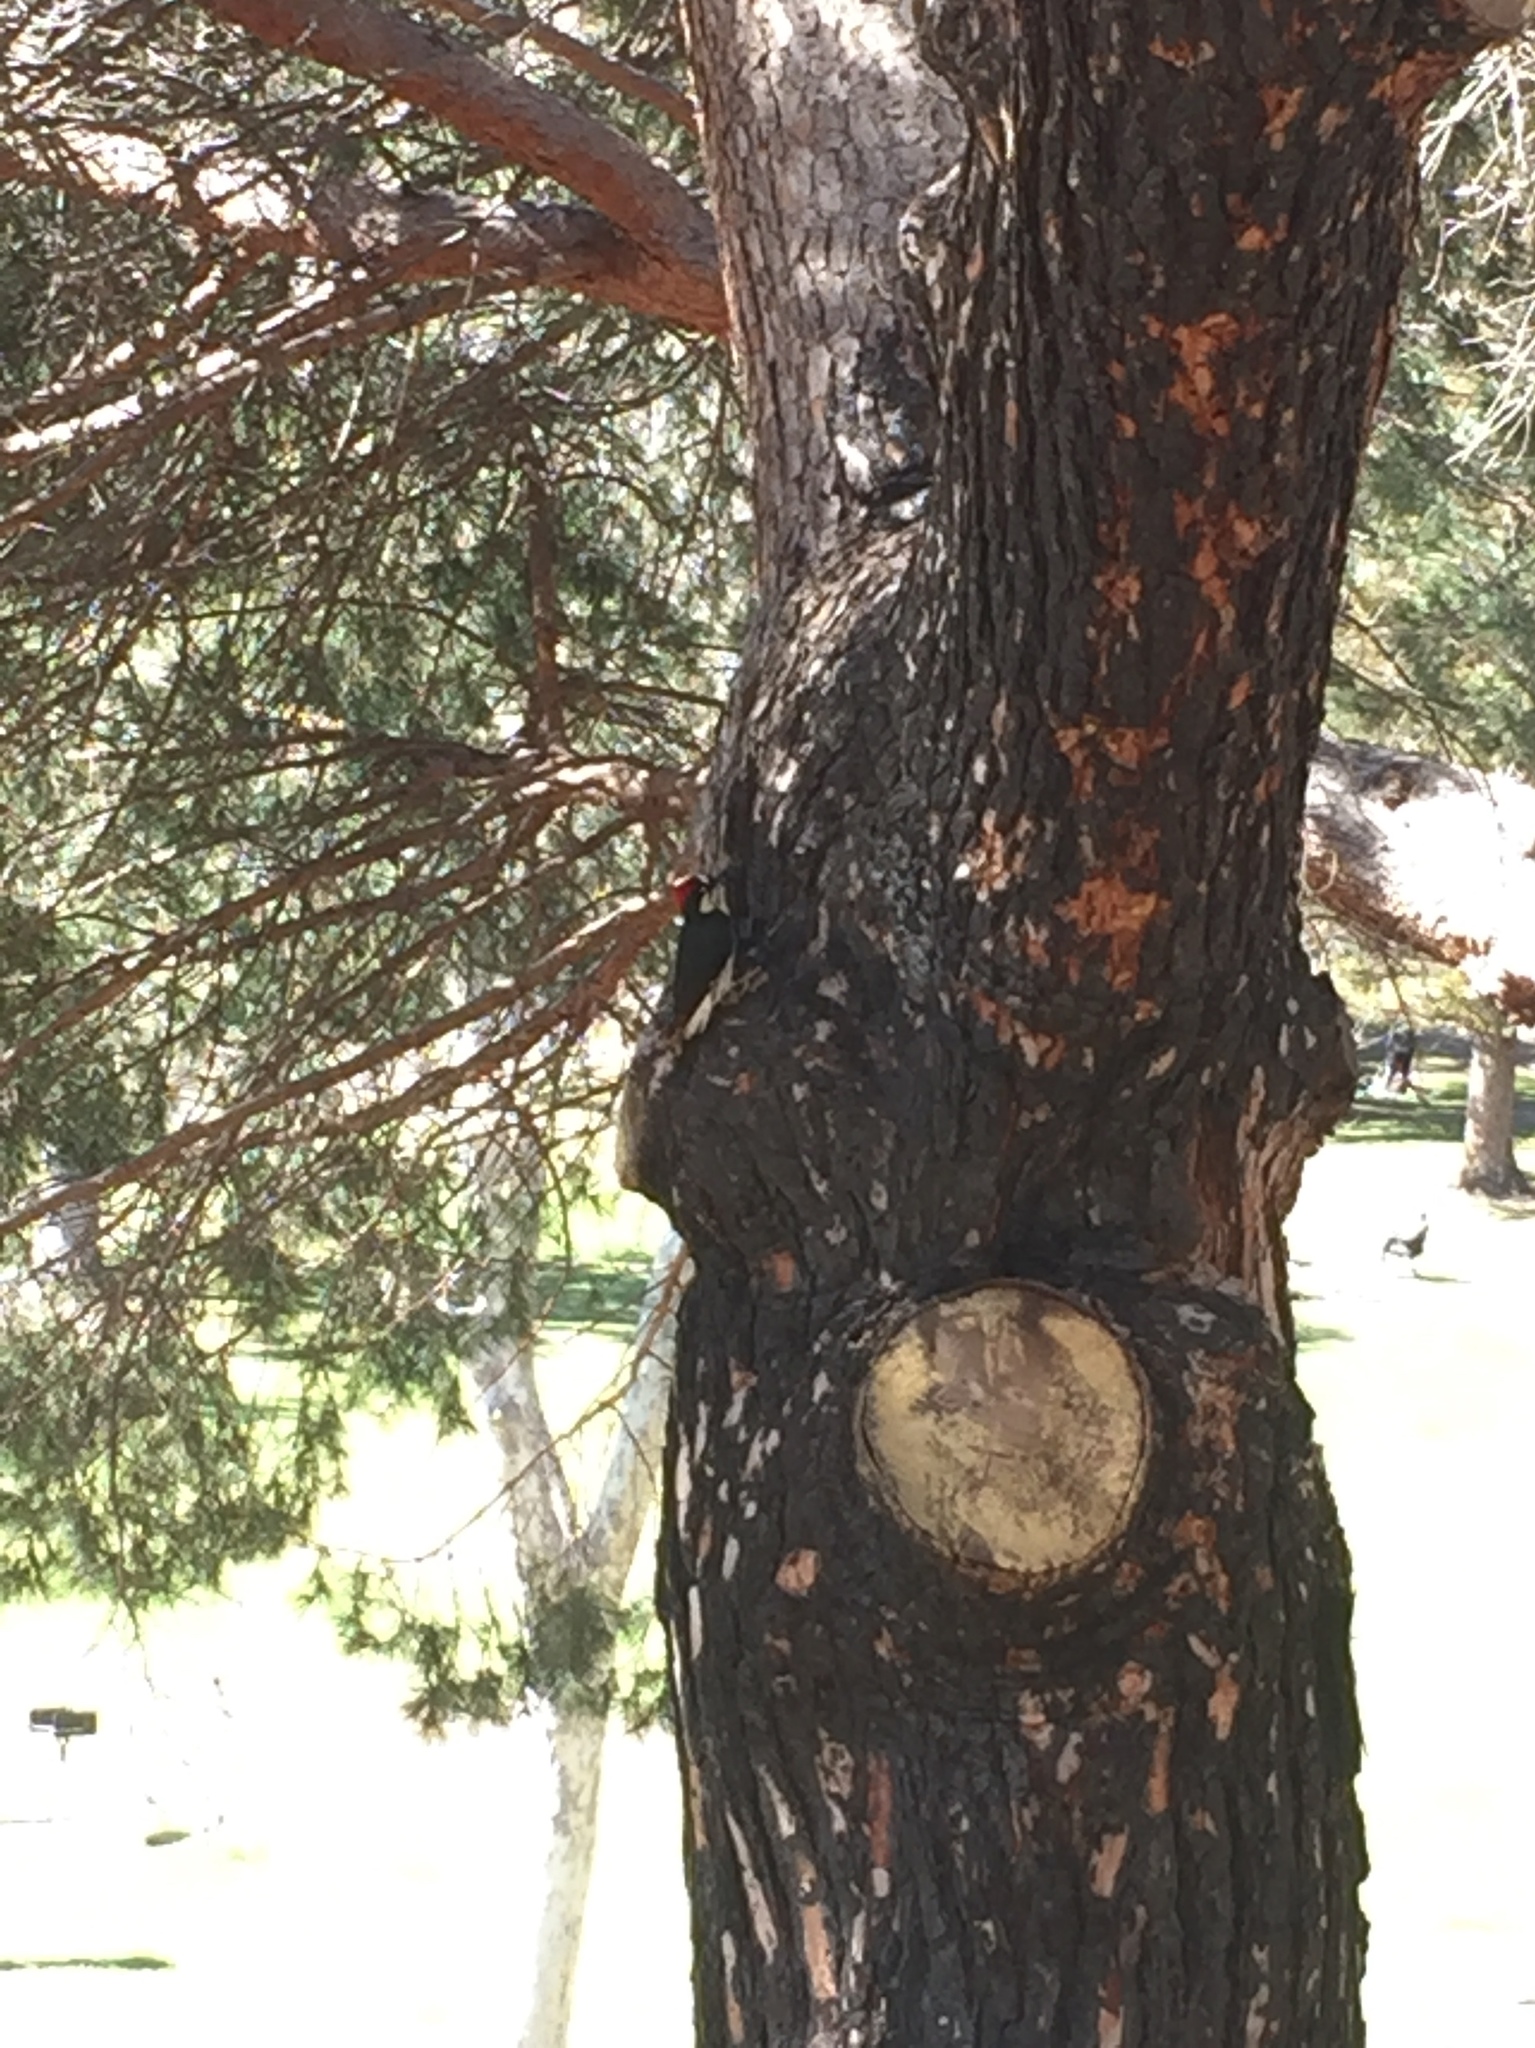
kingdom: Animalia
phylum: Chordata
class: Aves
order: Piciformes
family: Picidae
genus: Melanerpes
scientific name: Melanerpes formicivorus
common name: Acorn woodpecker
